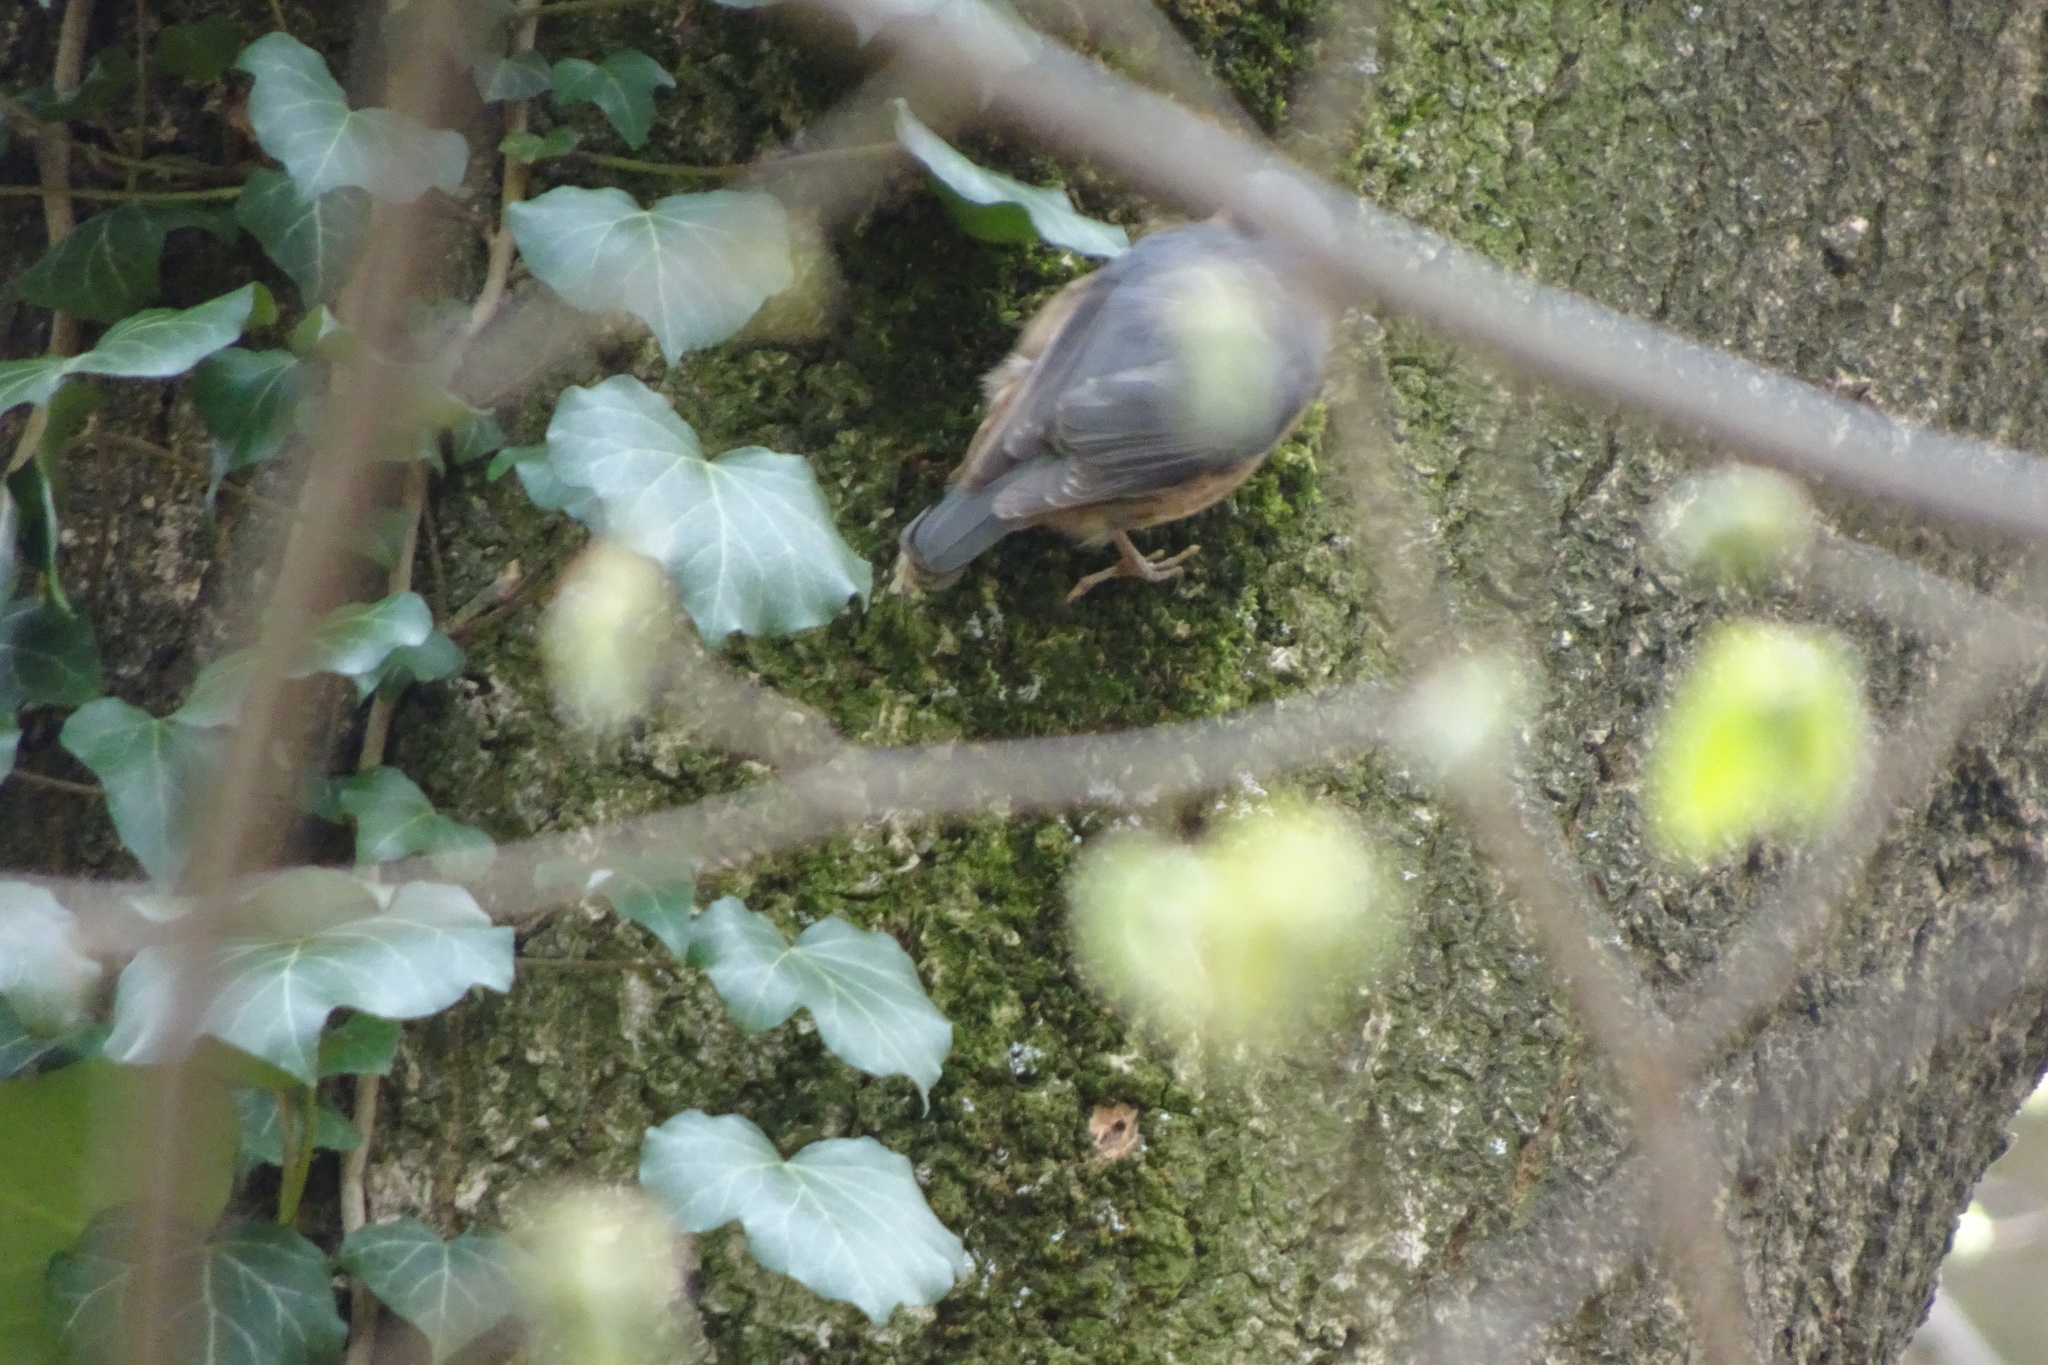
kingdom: Animalia
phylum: Chordata
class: Aves
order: Passeriformes
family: Sittidae
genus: Sitta
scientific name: Sitta europaea
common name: Eurasian nuthatch
